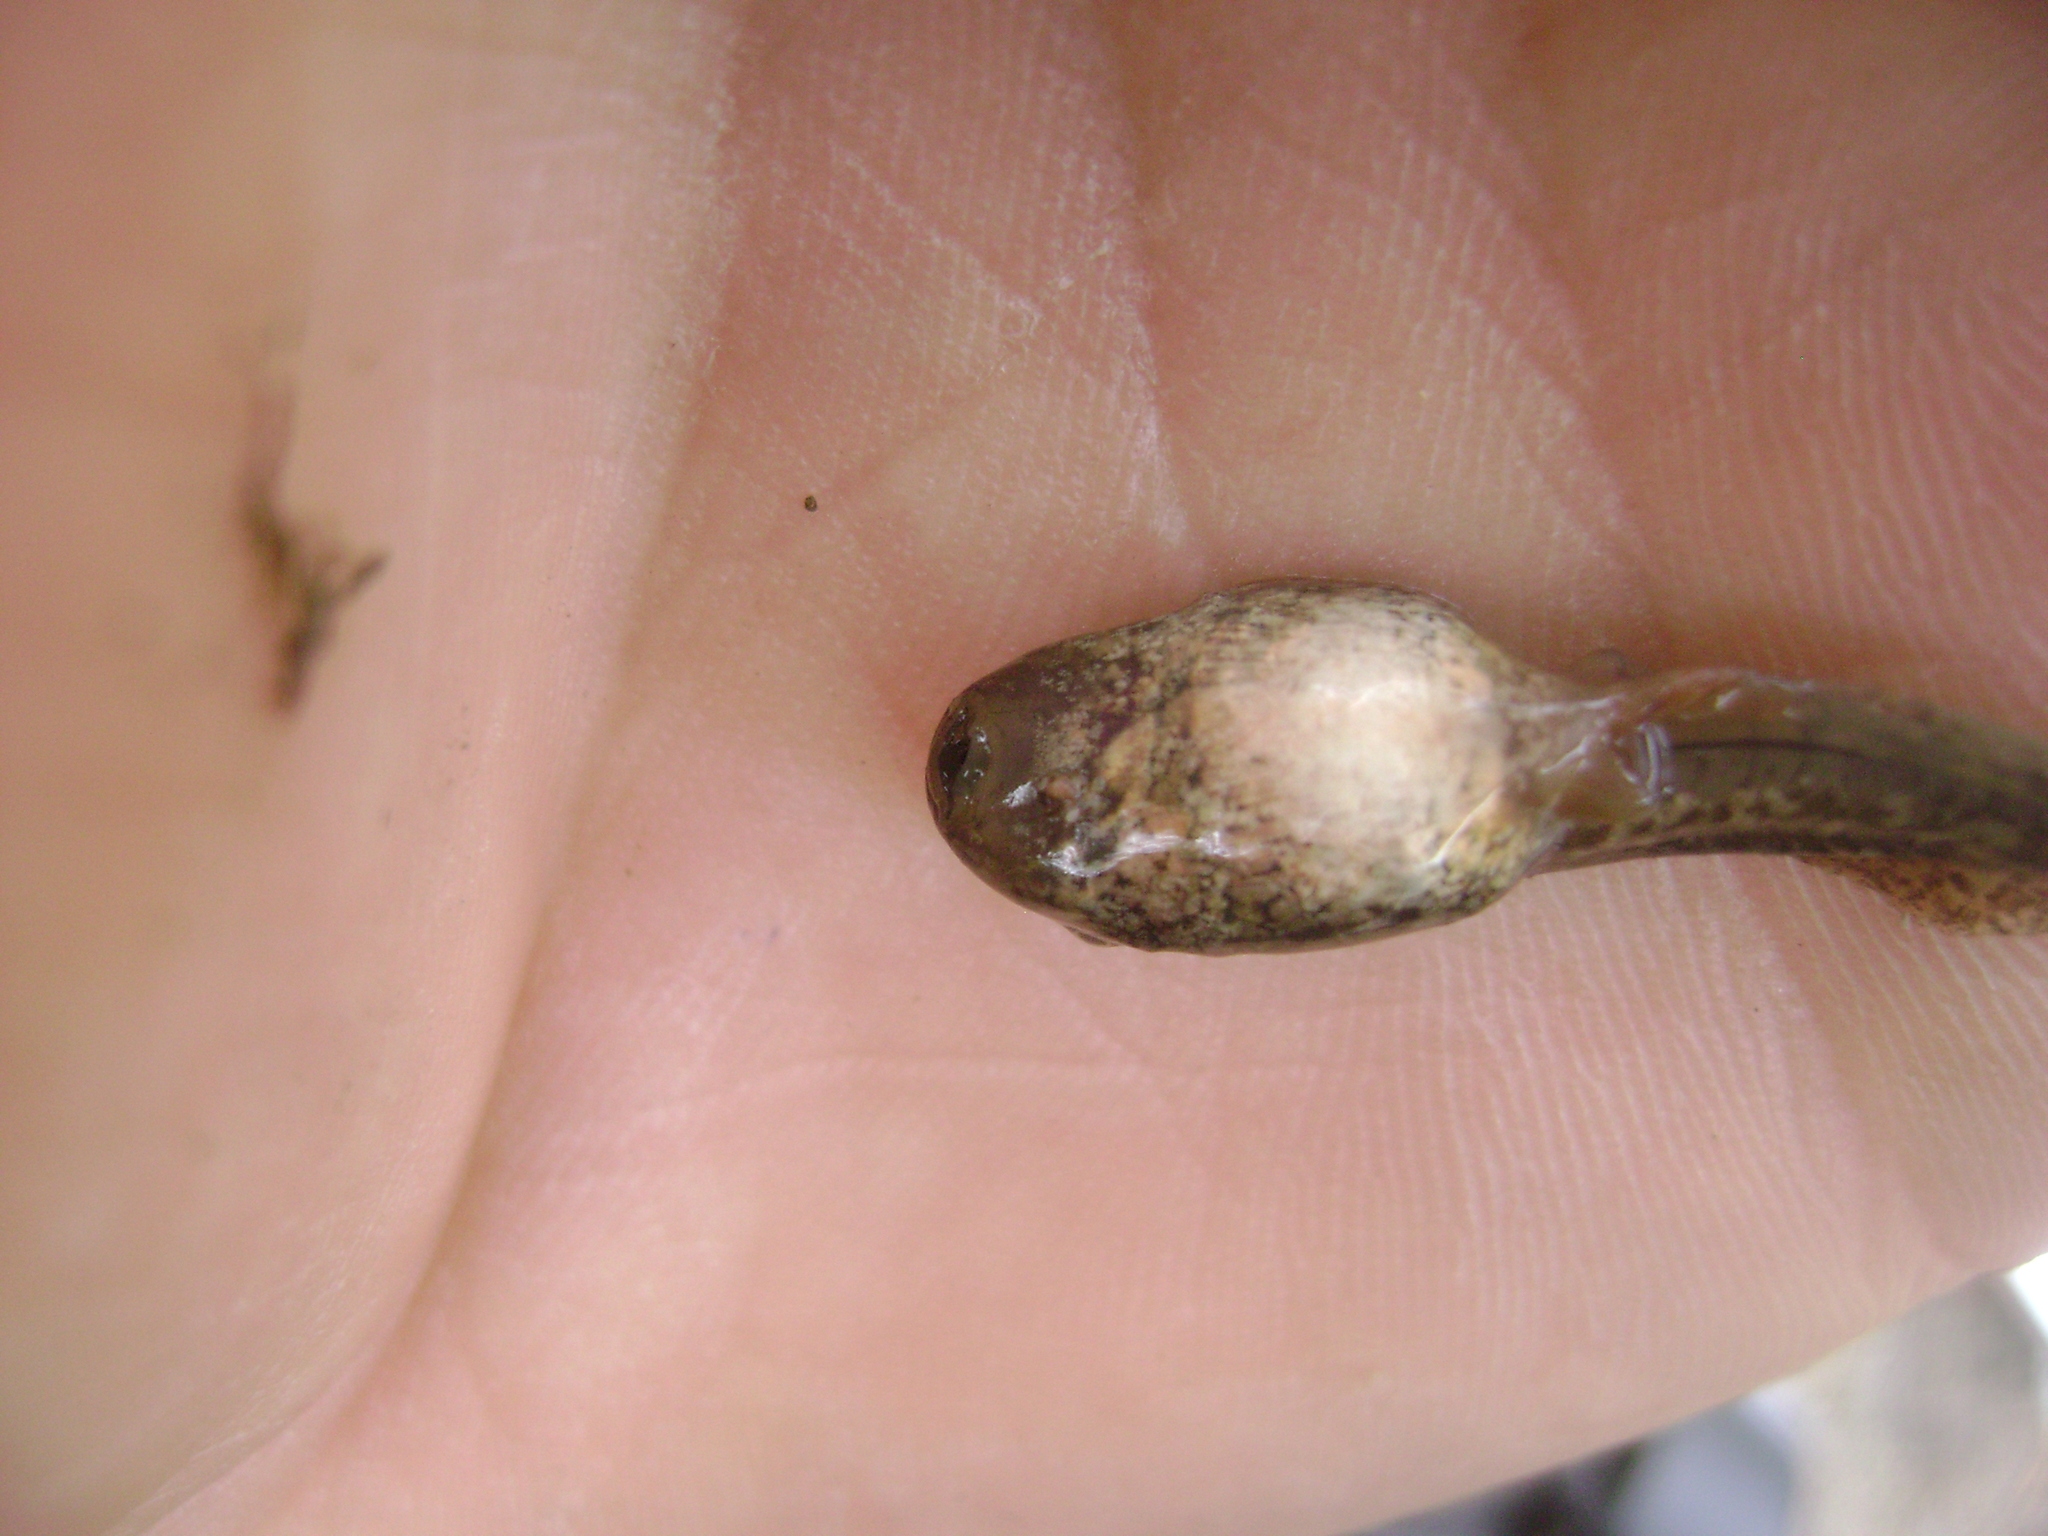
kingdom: Animalia
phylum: Chordata
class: Amphibia
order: Anura
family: Hylidae
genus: Pseudacris
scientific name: Pseudacris regilla
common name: Pacific chorus frog
